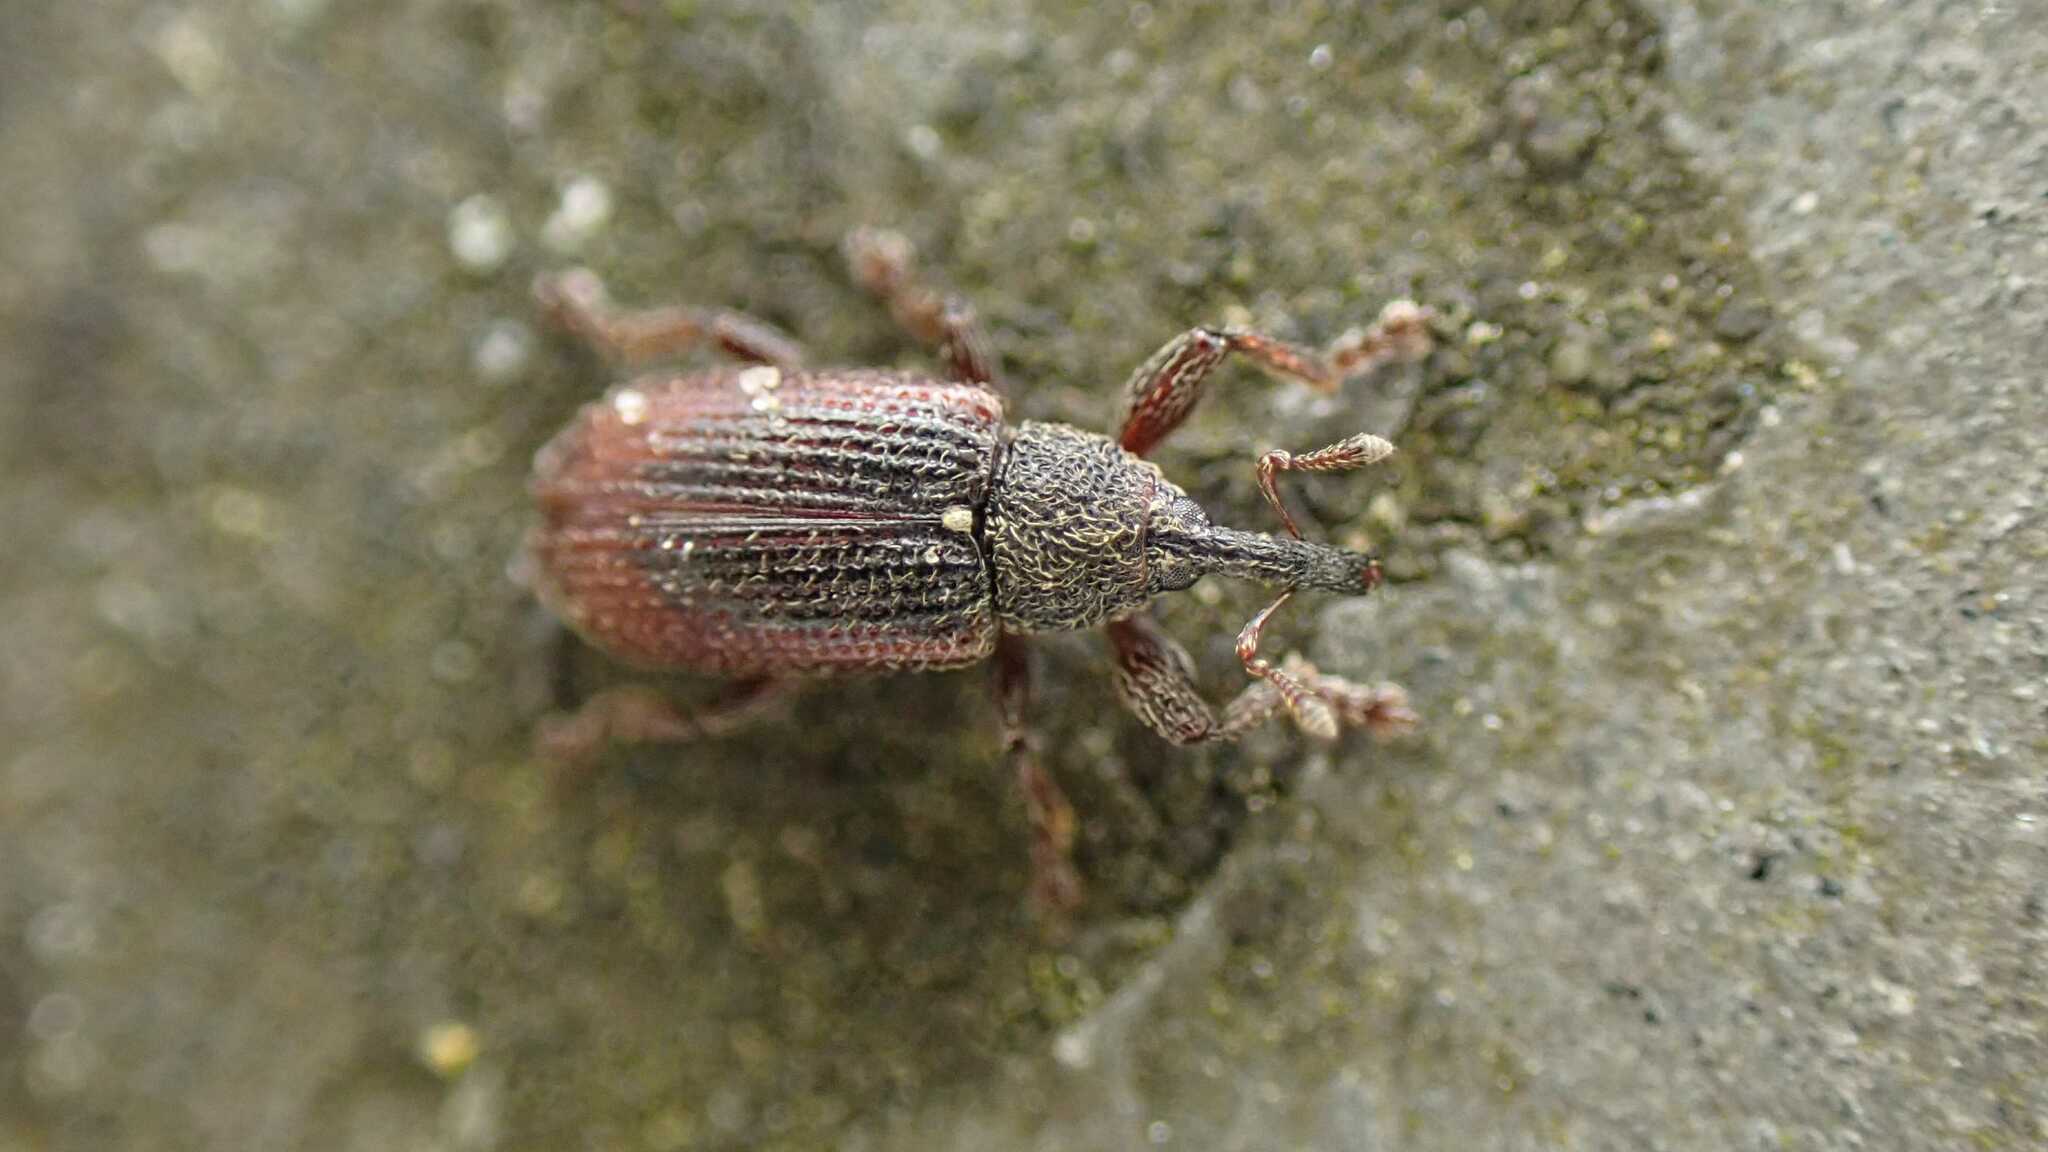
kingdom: Animalia
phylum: Arthropoda
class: Insecta
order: Coleoptera
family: Curculionidae
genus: Bradybatus
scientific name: Bradybatus kellneri
